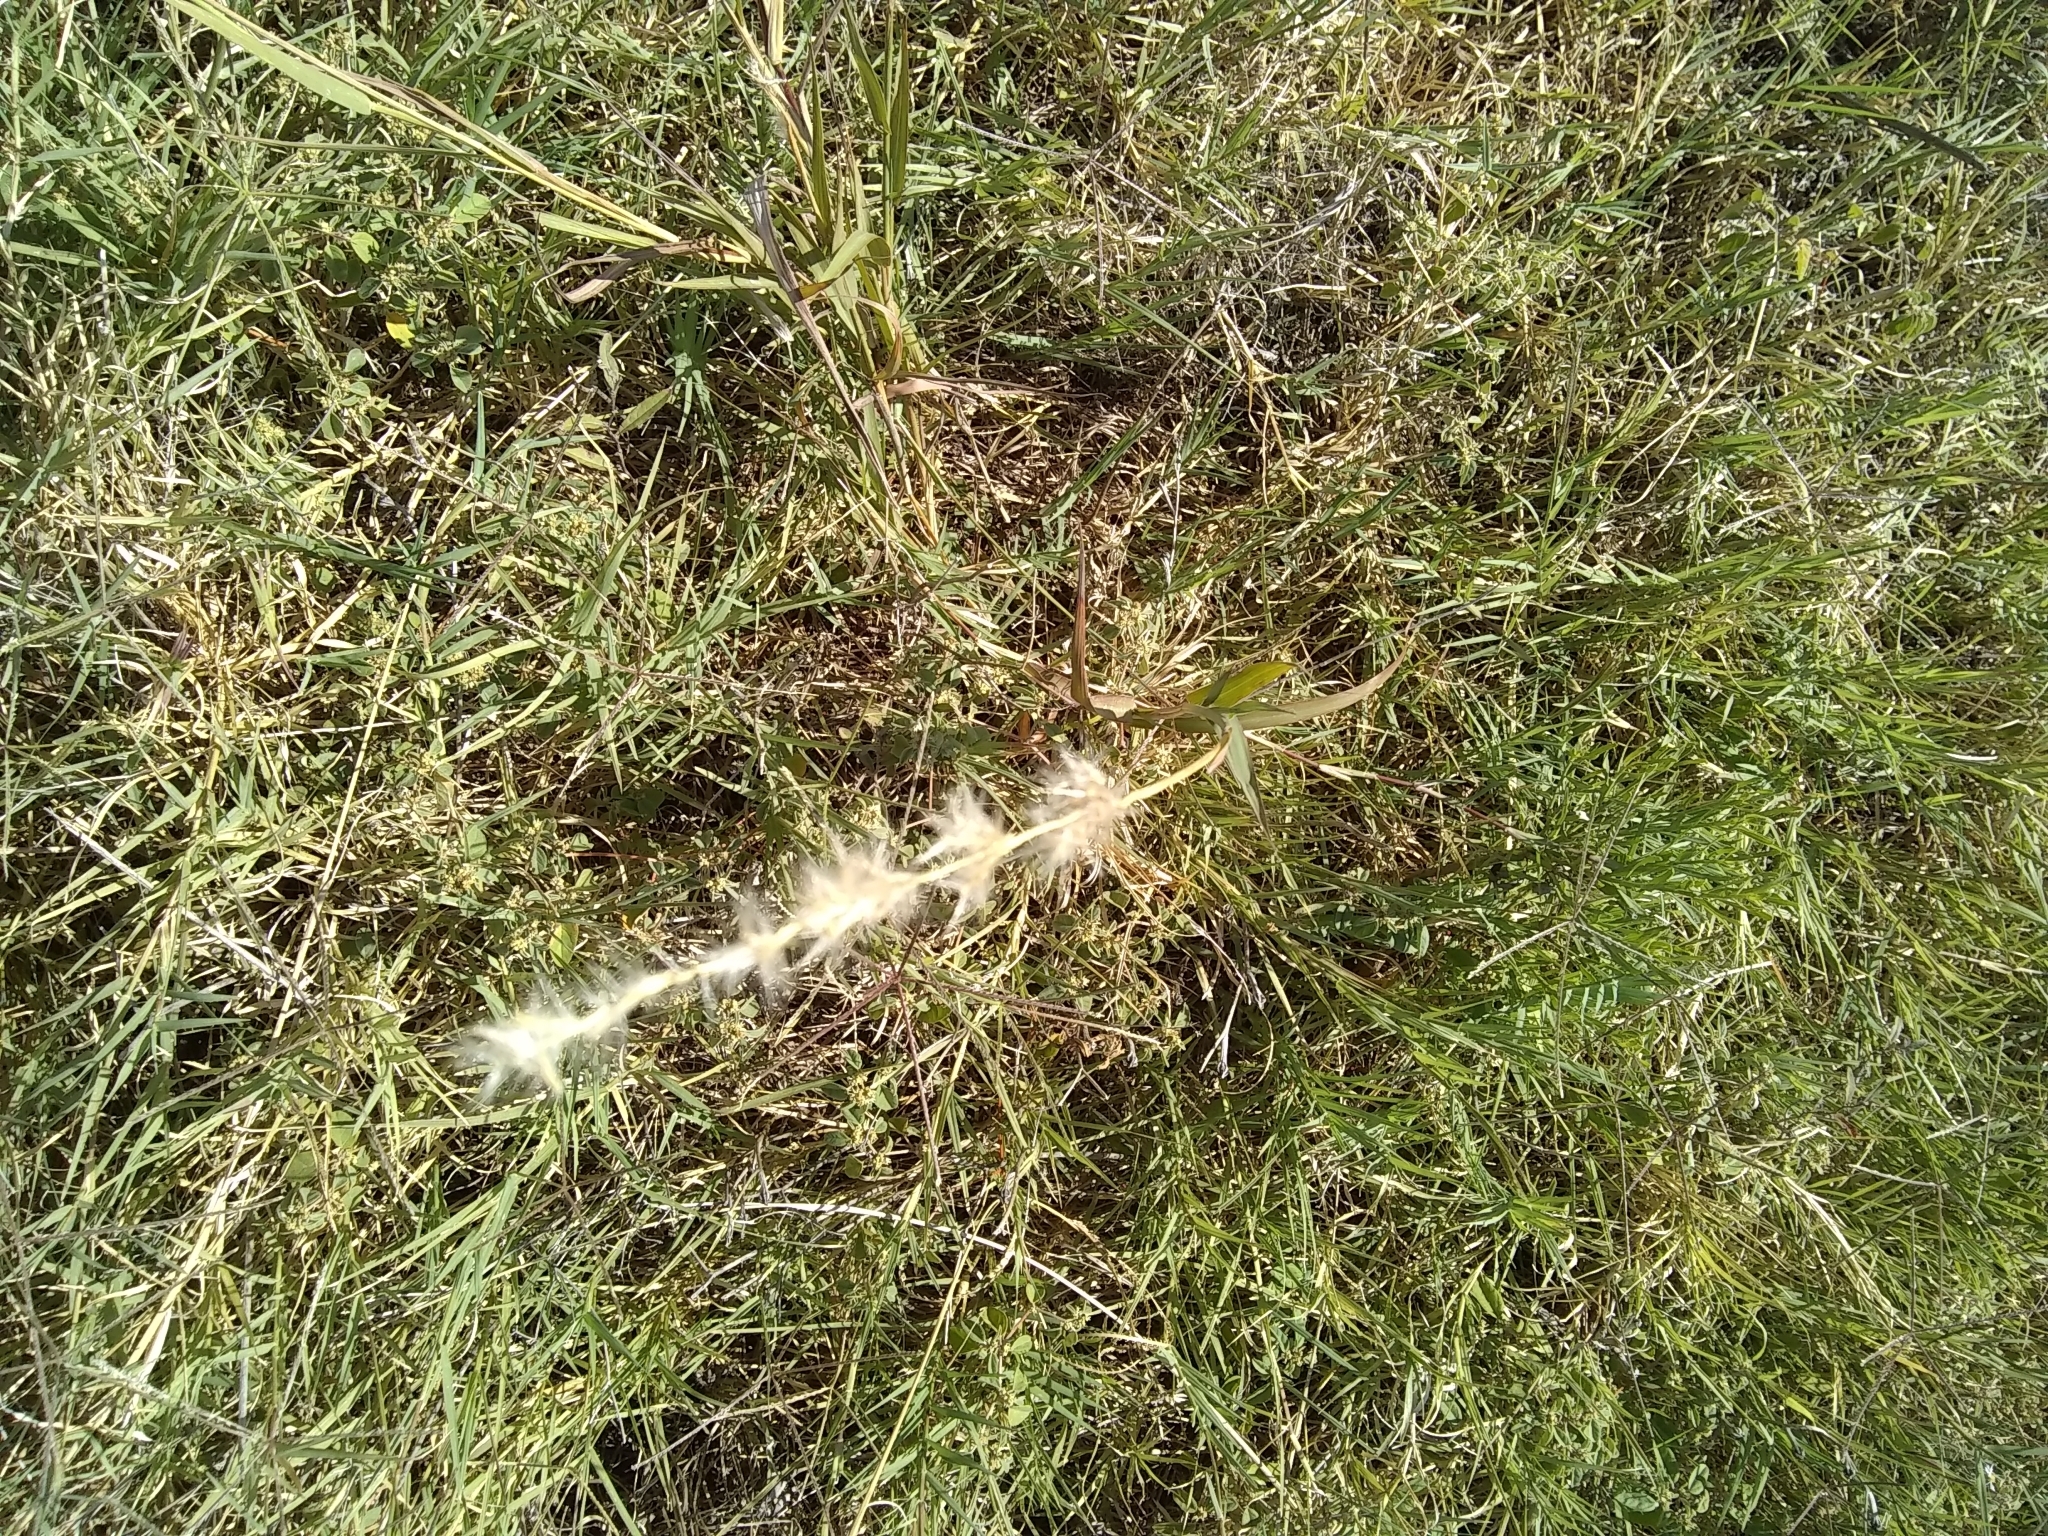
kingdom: Plantae
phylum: Tracheophyta
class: Liliopsida
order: Poales
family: Poaceae
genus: Bothriochloa
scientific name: Bothriochloa torreyana
